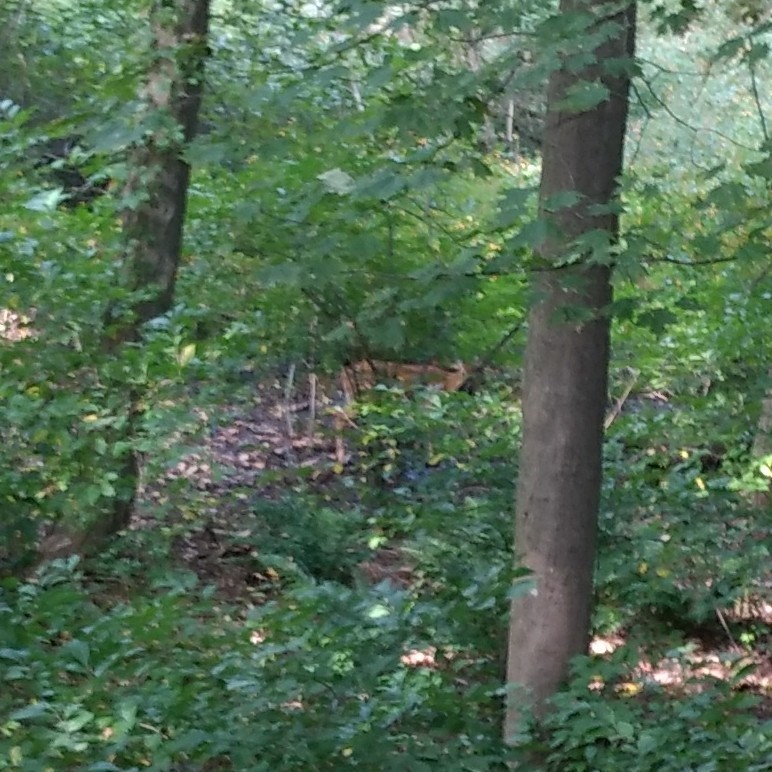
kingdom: Animalia
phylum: Chordata
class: Mammalia
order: Artiodactyla
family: Cervidae
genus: Odocoileus
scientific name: Odocoileus virginianus
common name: White-tailed deer
